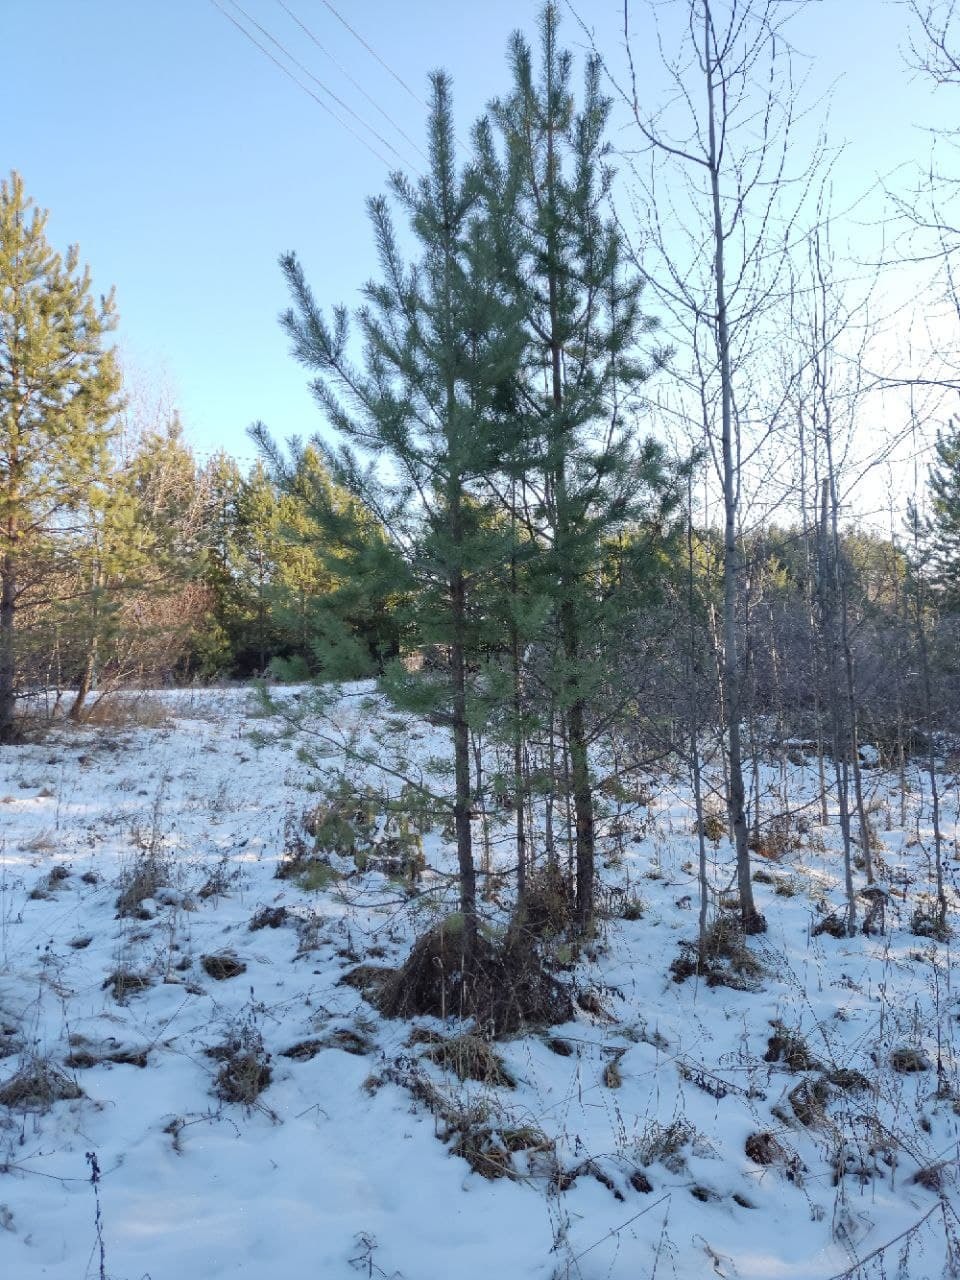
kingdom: Plantae
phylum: Tracheophyta
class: Pinopsida
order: Pinales
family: Pinaceae
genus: Pinus
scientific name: Pinus sylvestris
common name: Scots pine
